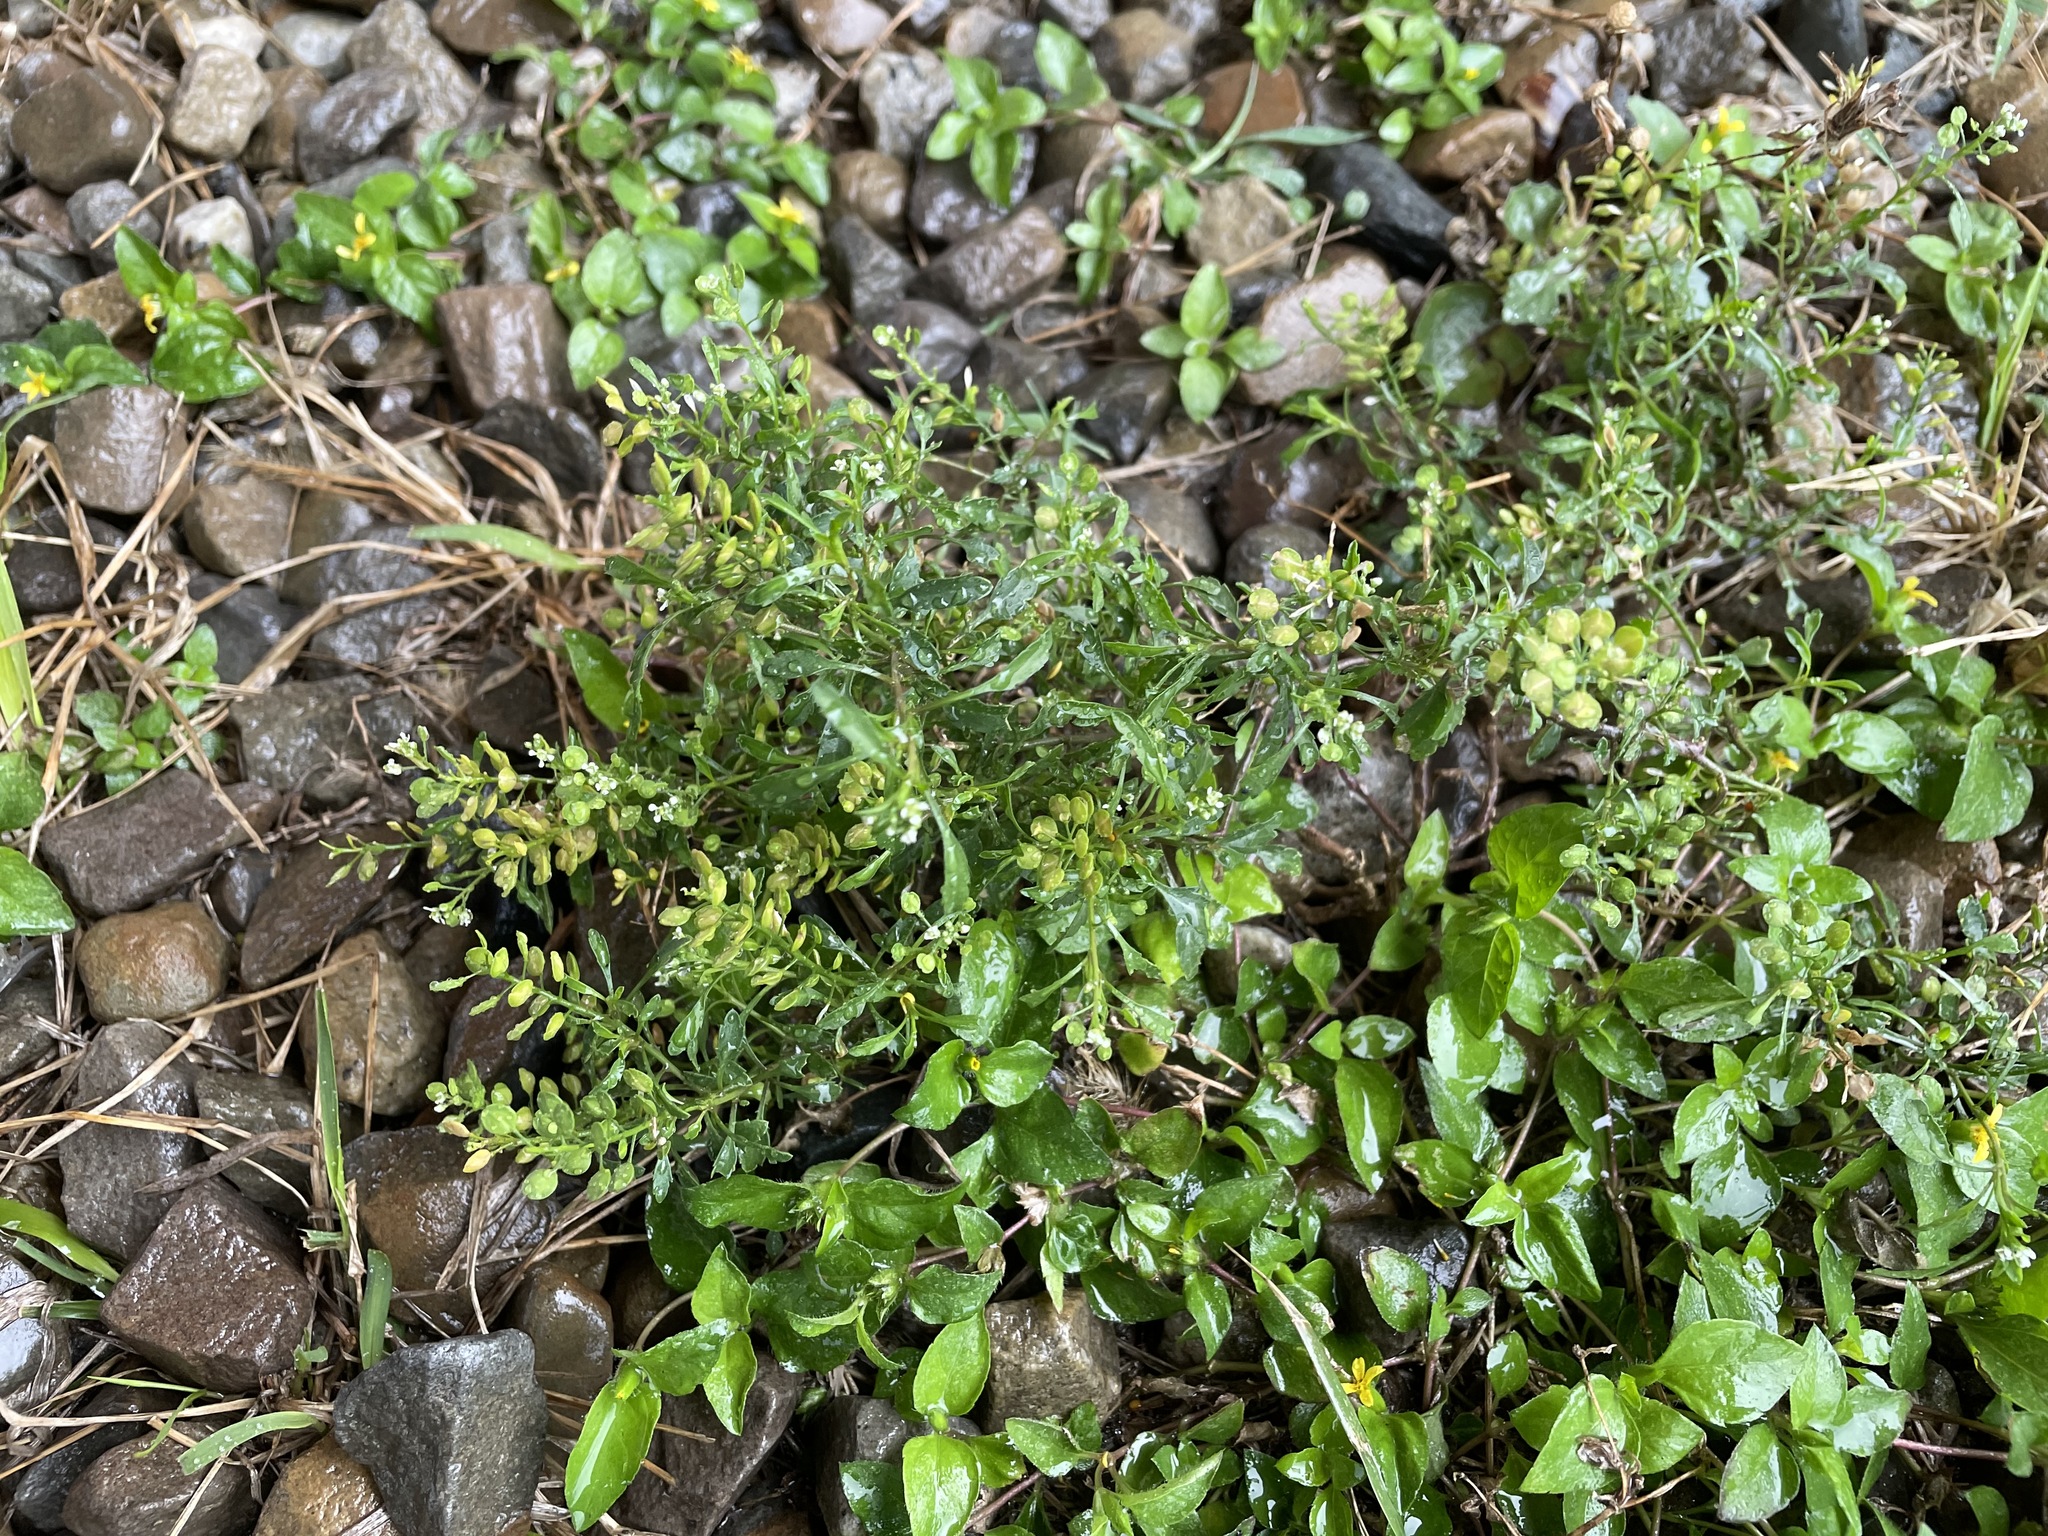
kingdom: Plantae
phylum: Tracheophyta
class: Magnoliopsida
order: Brassicales
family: Brassicaceae
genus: Lepidium
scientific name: Lepidium virginicum
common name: Least pepperwort
